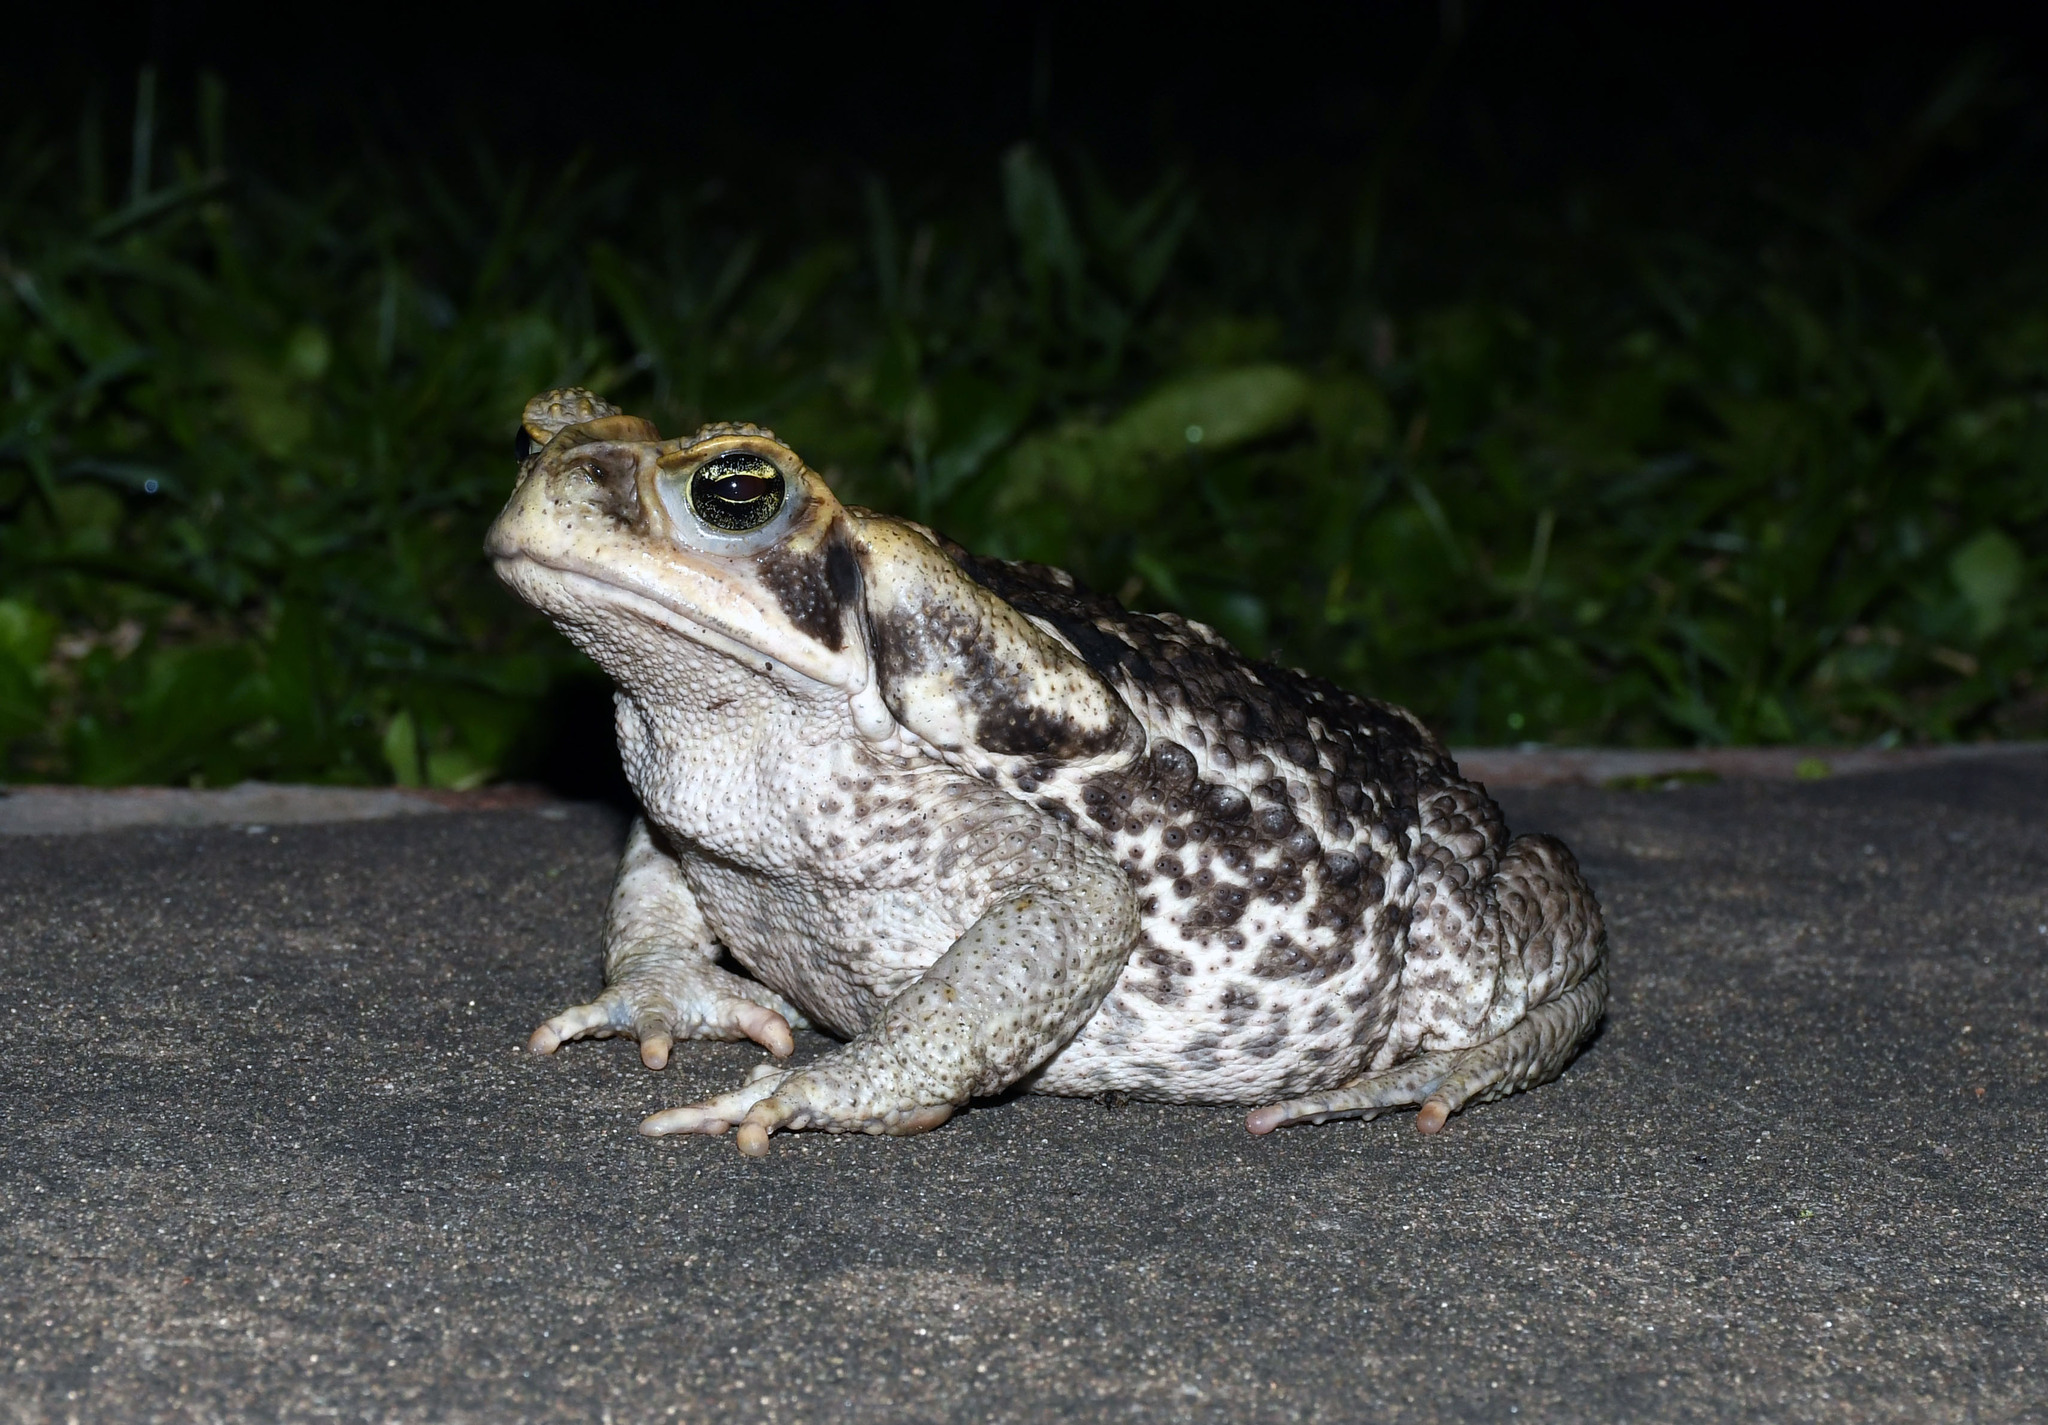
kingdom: Animalia
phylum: Chordata
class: Amphibia
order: Anura
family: Bufonidae
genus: Rhinella
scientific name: Rhinella diptycha
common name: Cope's toad
